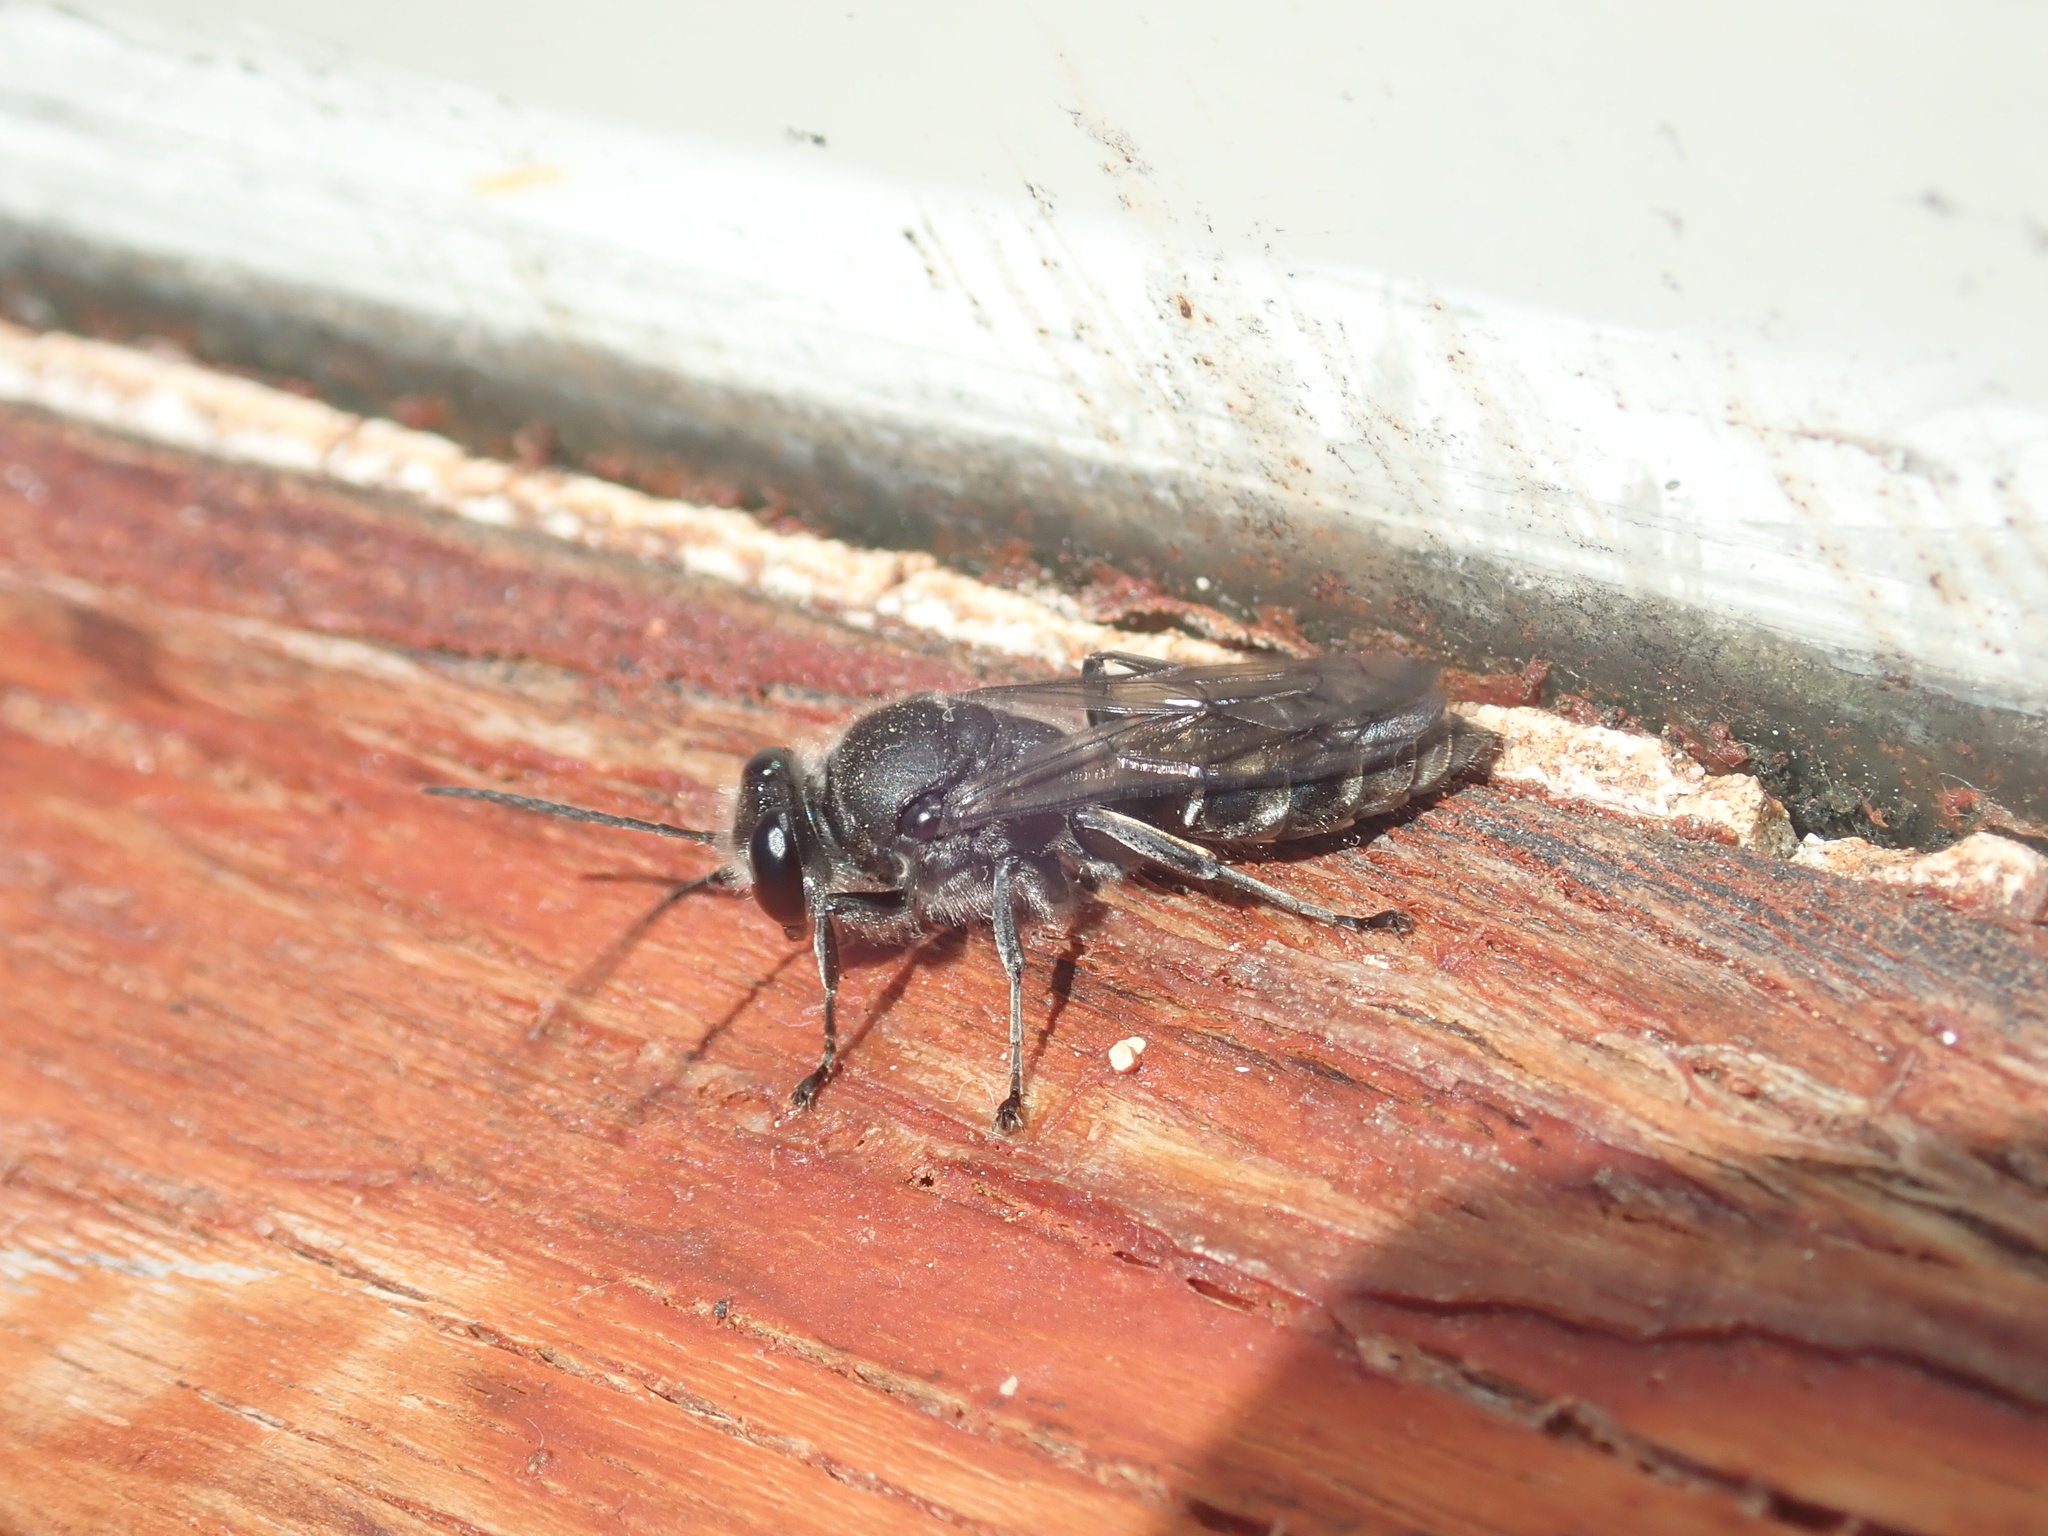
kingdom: Animalia
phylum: Arthropoda
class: Insecta
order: Hymenoptera
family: Crabronidae
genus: Pison
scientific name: Pison spinolae
